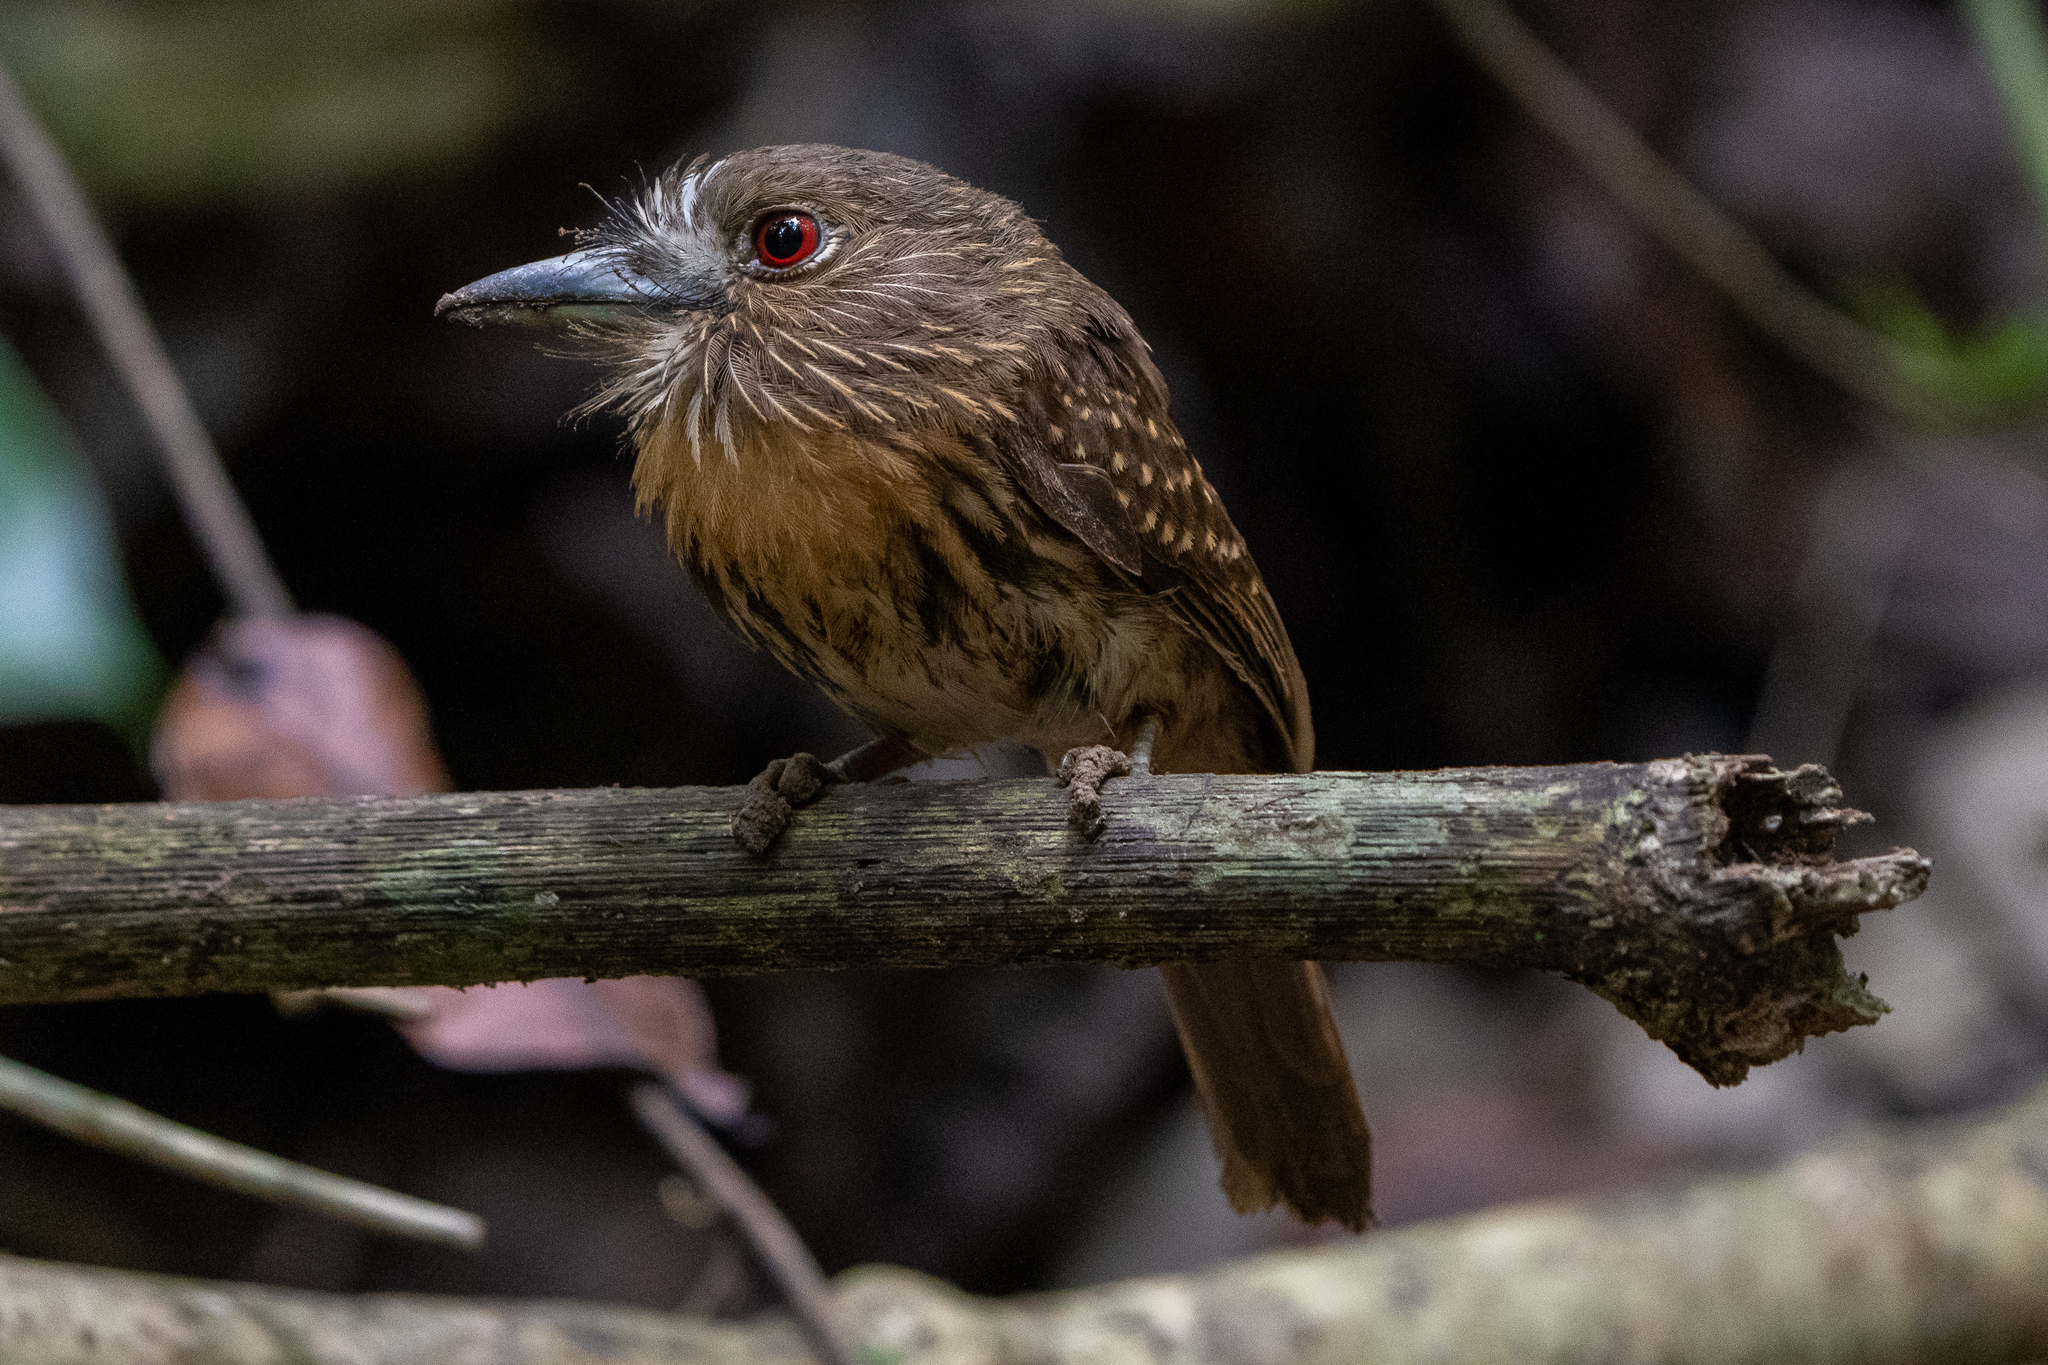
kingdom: Animalia
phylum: Chordata
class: Aves
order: Piciformes
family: Bucconidae
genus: Malacoptila
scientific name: Malacoptila panamensis
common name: White-whiskered puffbird
